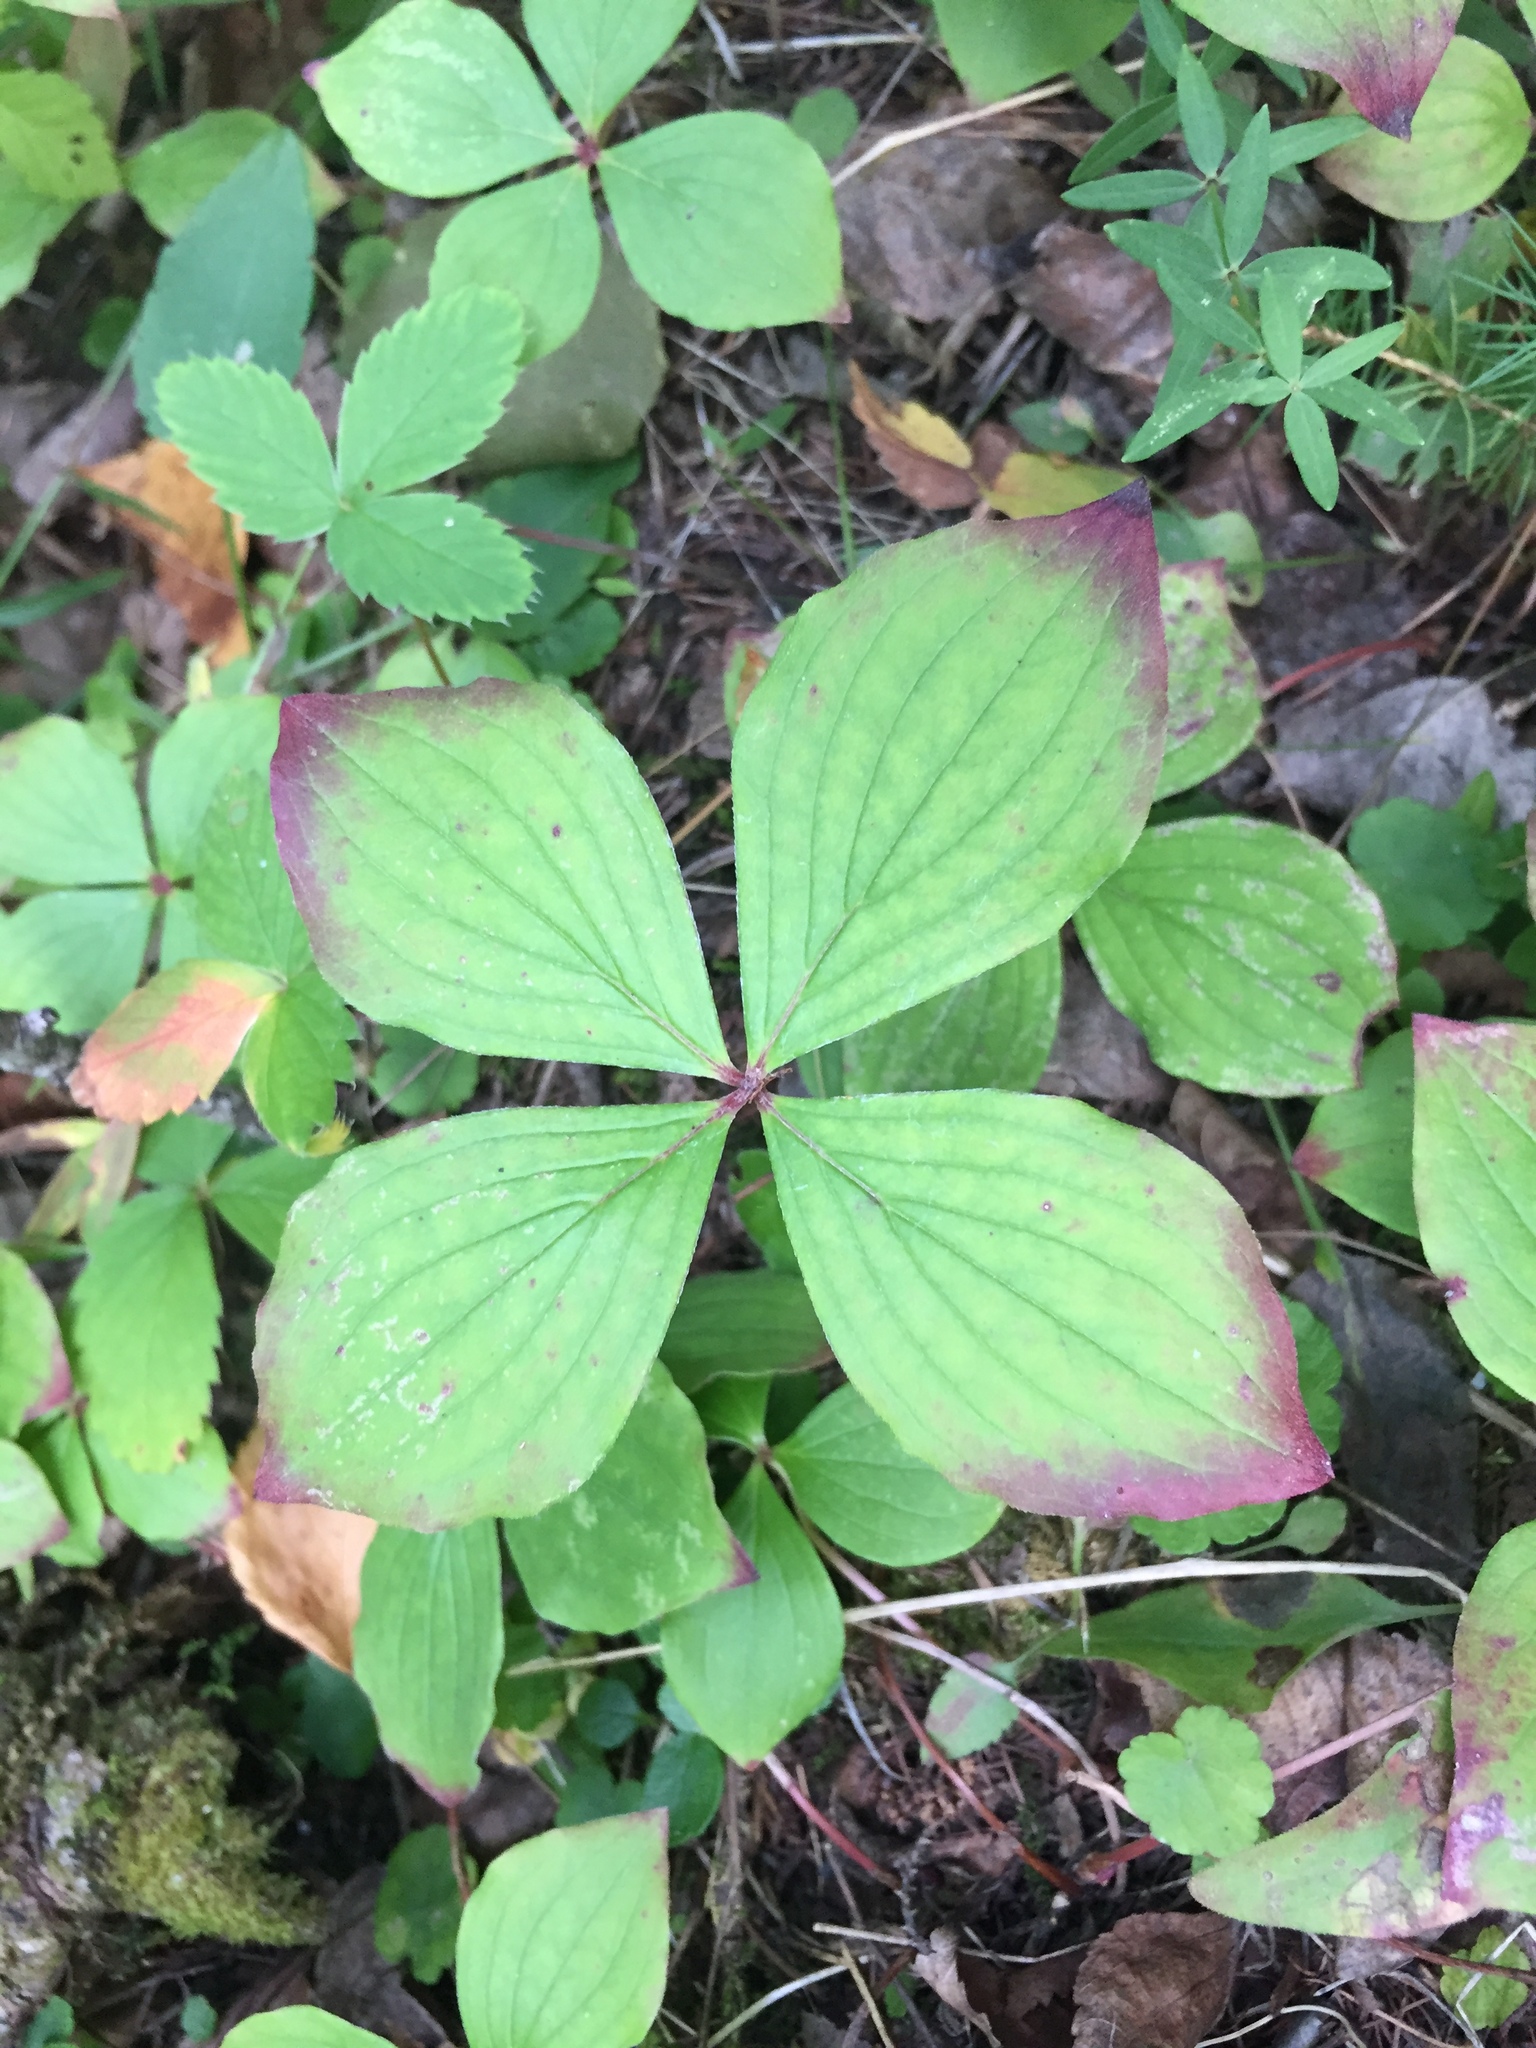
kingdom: Plantae
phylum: Tracheophyta
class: Magnoliopsida
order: Cornales
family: Cornaceae
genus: Cornus
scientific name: Cornus canadensis
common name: Creeping dogwood
